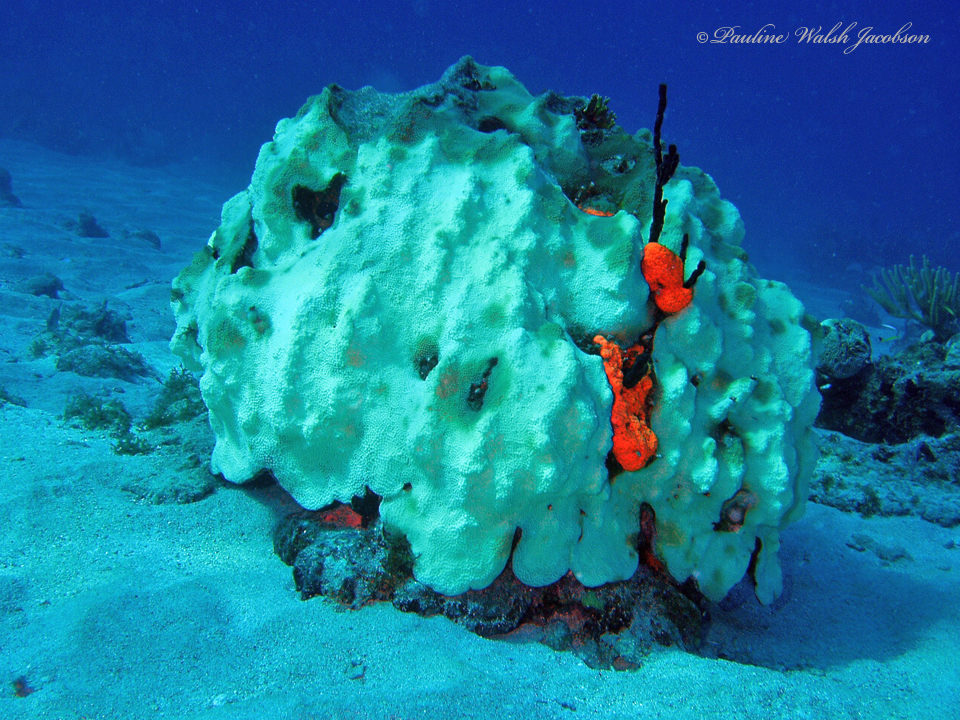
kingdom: Animalia
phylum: Cnidaria
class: Anthozoa
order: Scleractinia
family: Merulinidae
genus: Orbicella
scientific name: Orbicella faveolata
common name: Mountainous star coral
